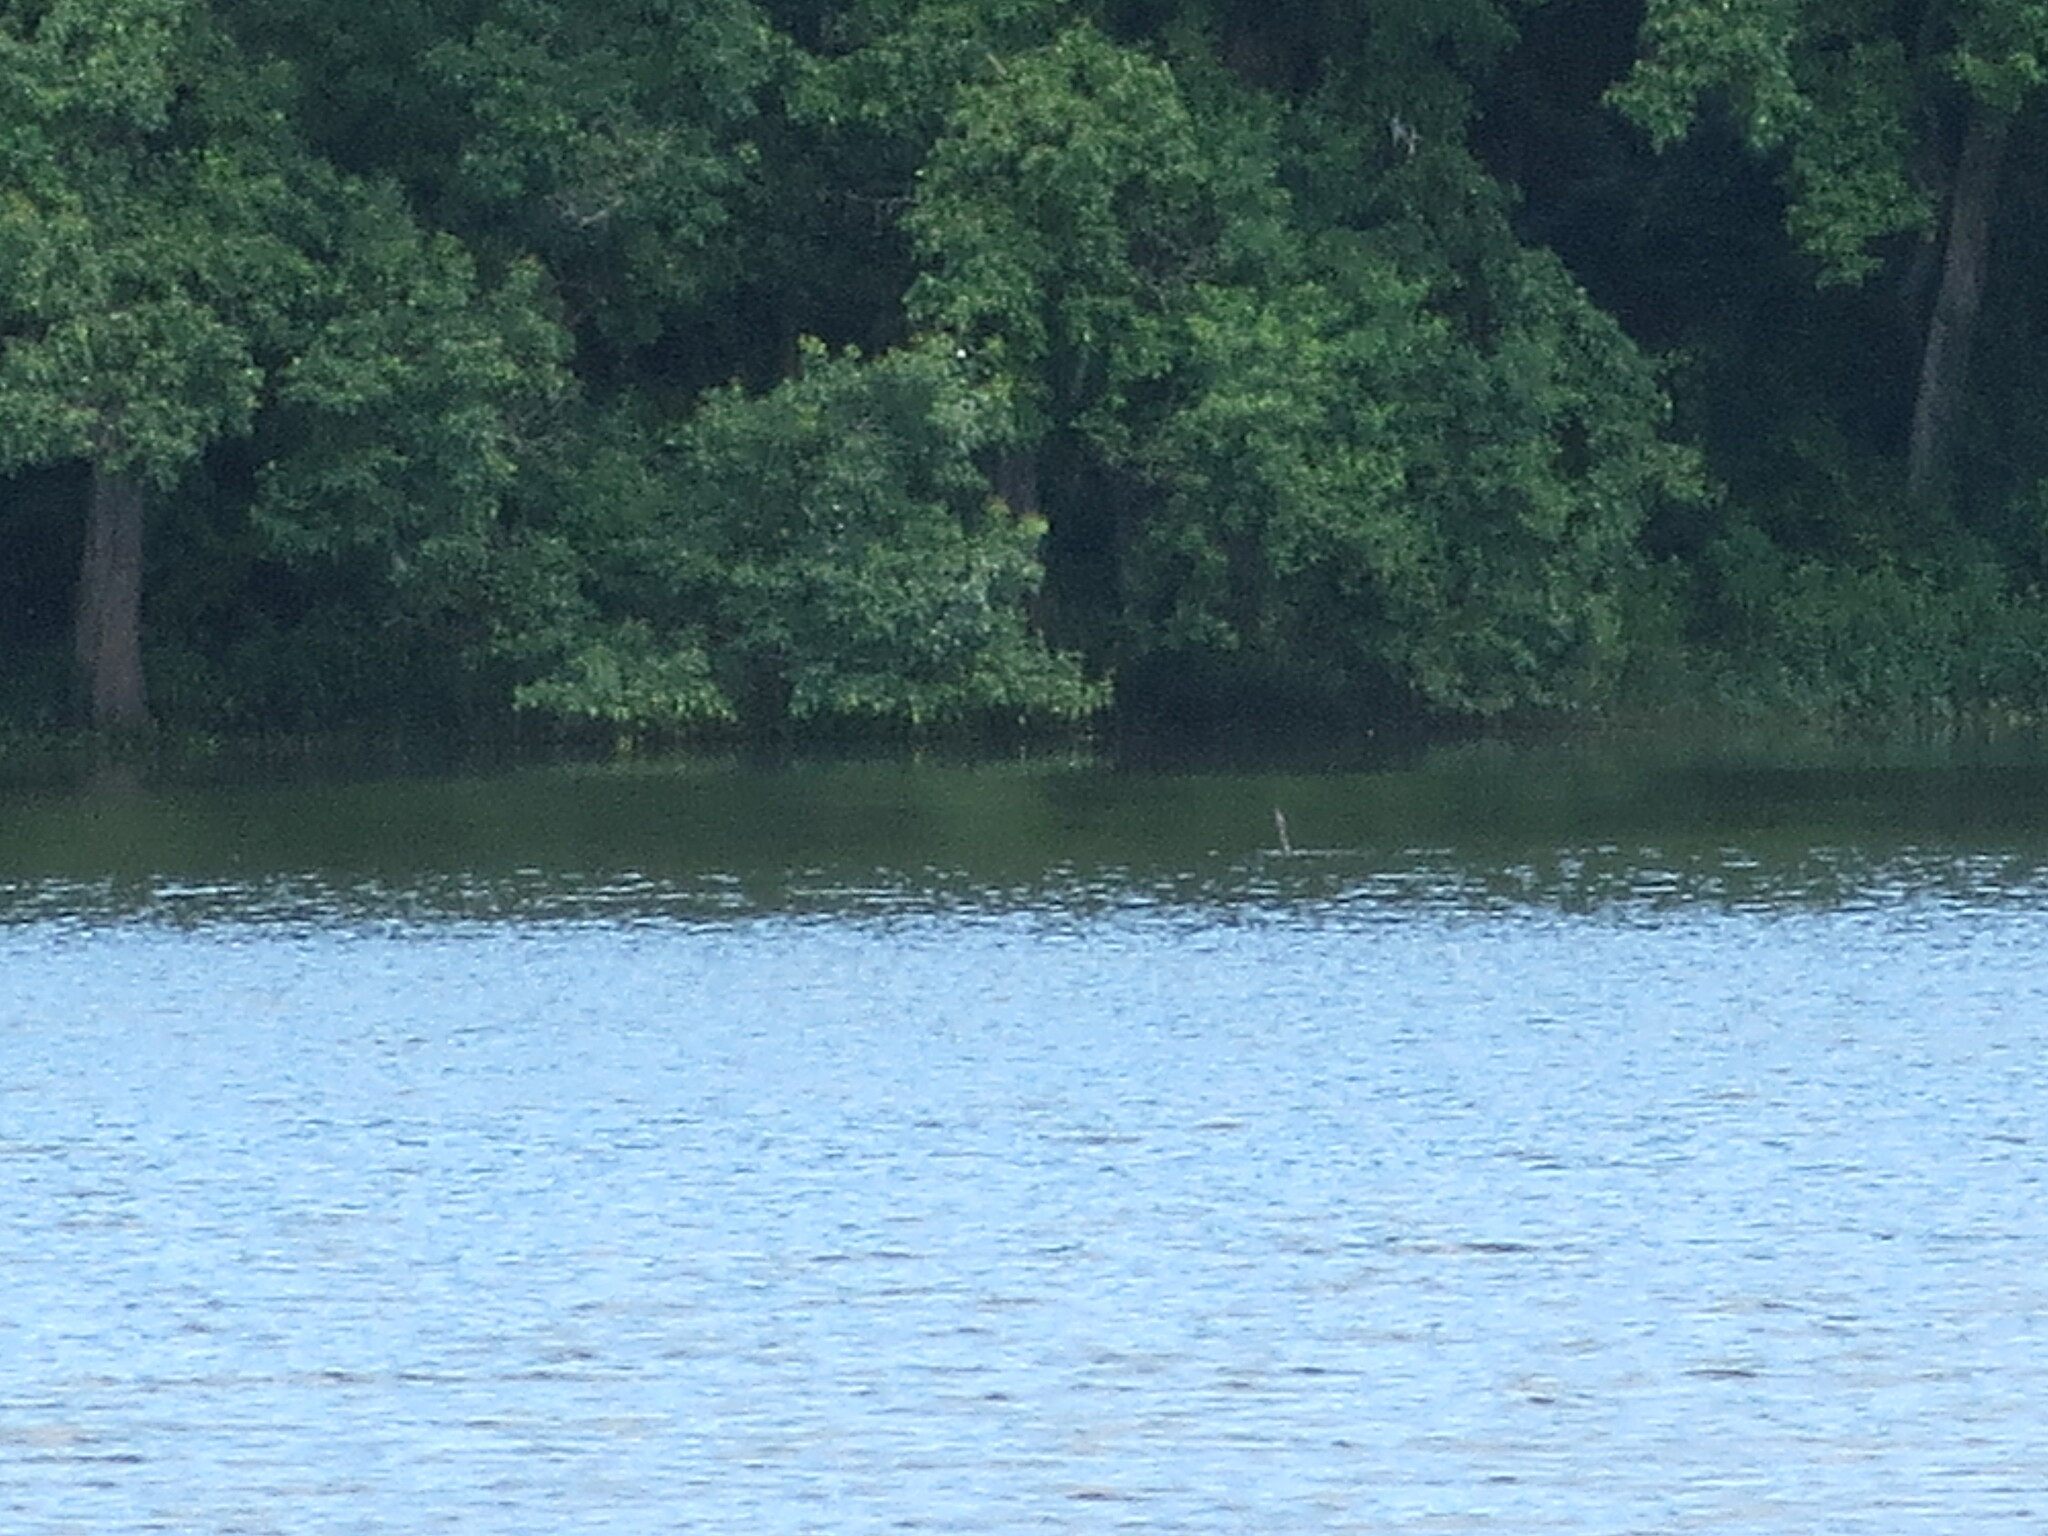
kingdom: Animalia
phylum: Chordata
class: Aves
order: Suliformes
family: Anhingidae
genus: Anhinga
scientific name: Anhinga anhinga
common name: Anhinga
